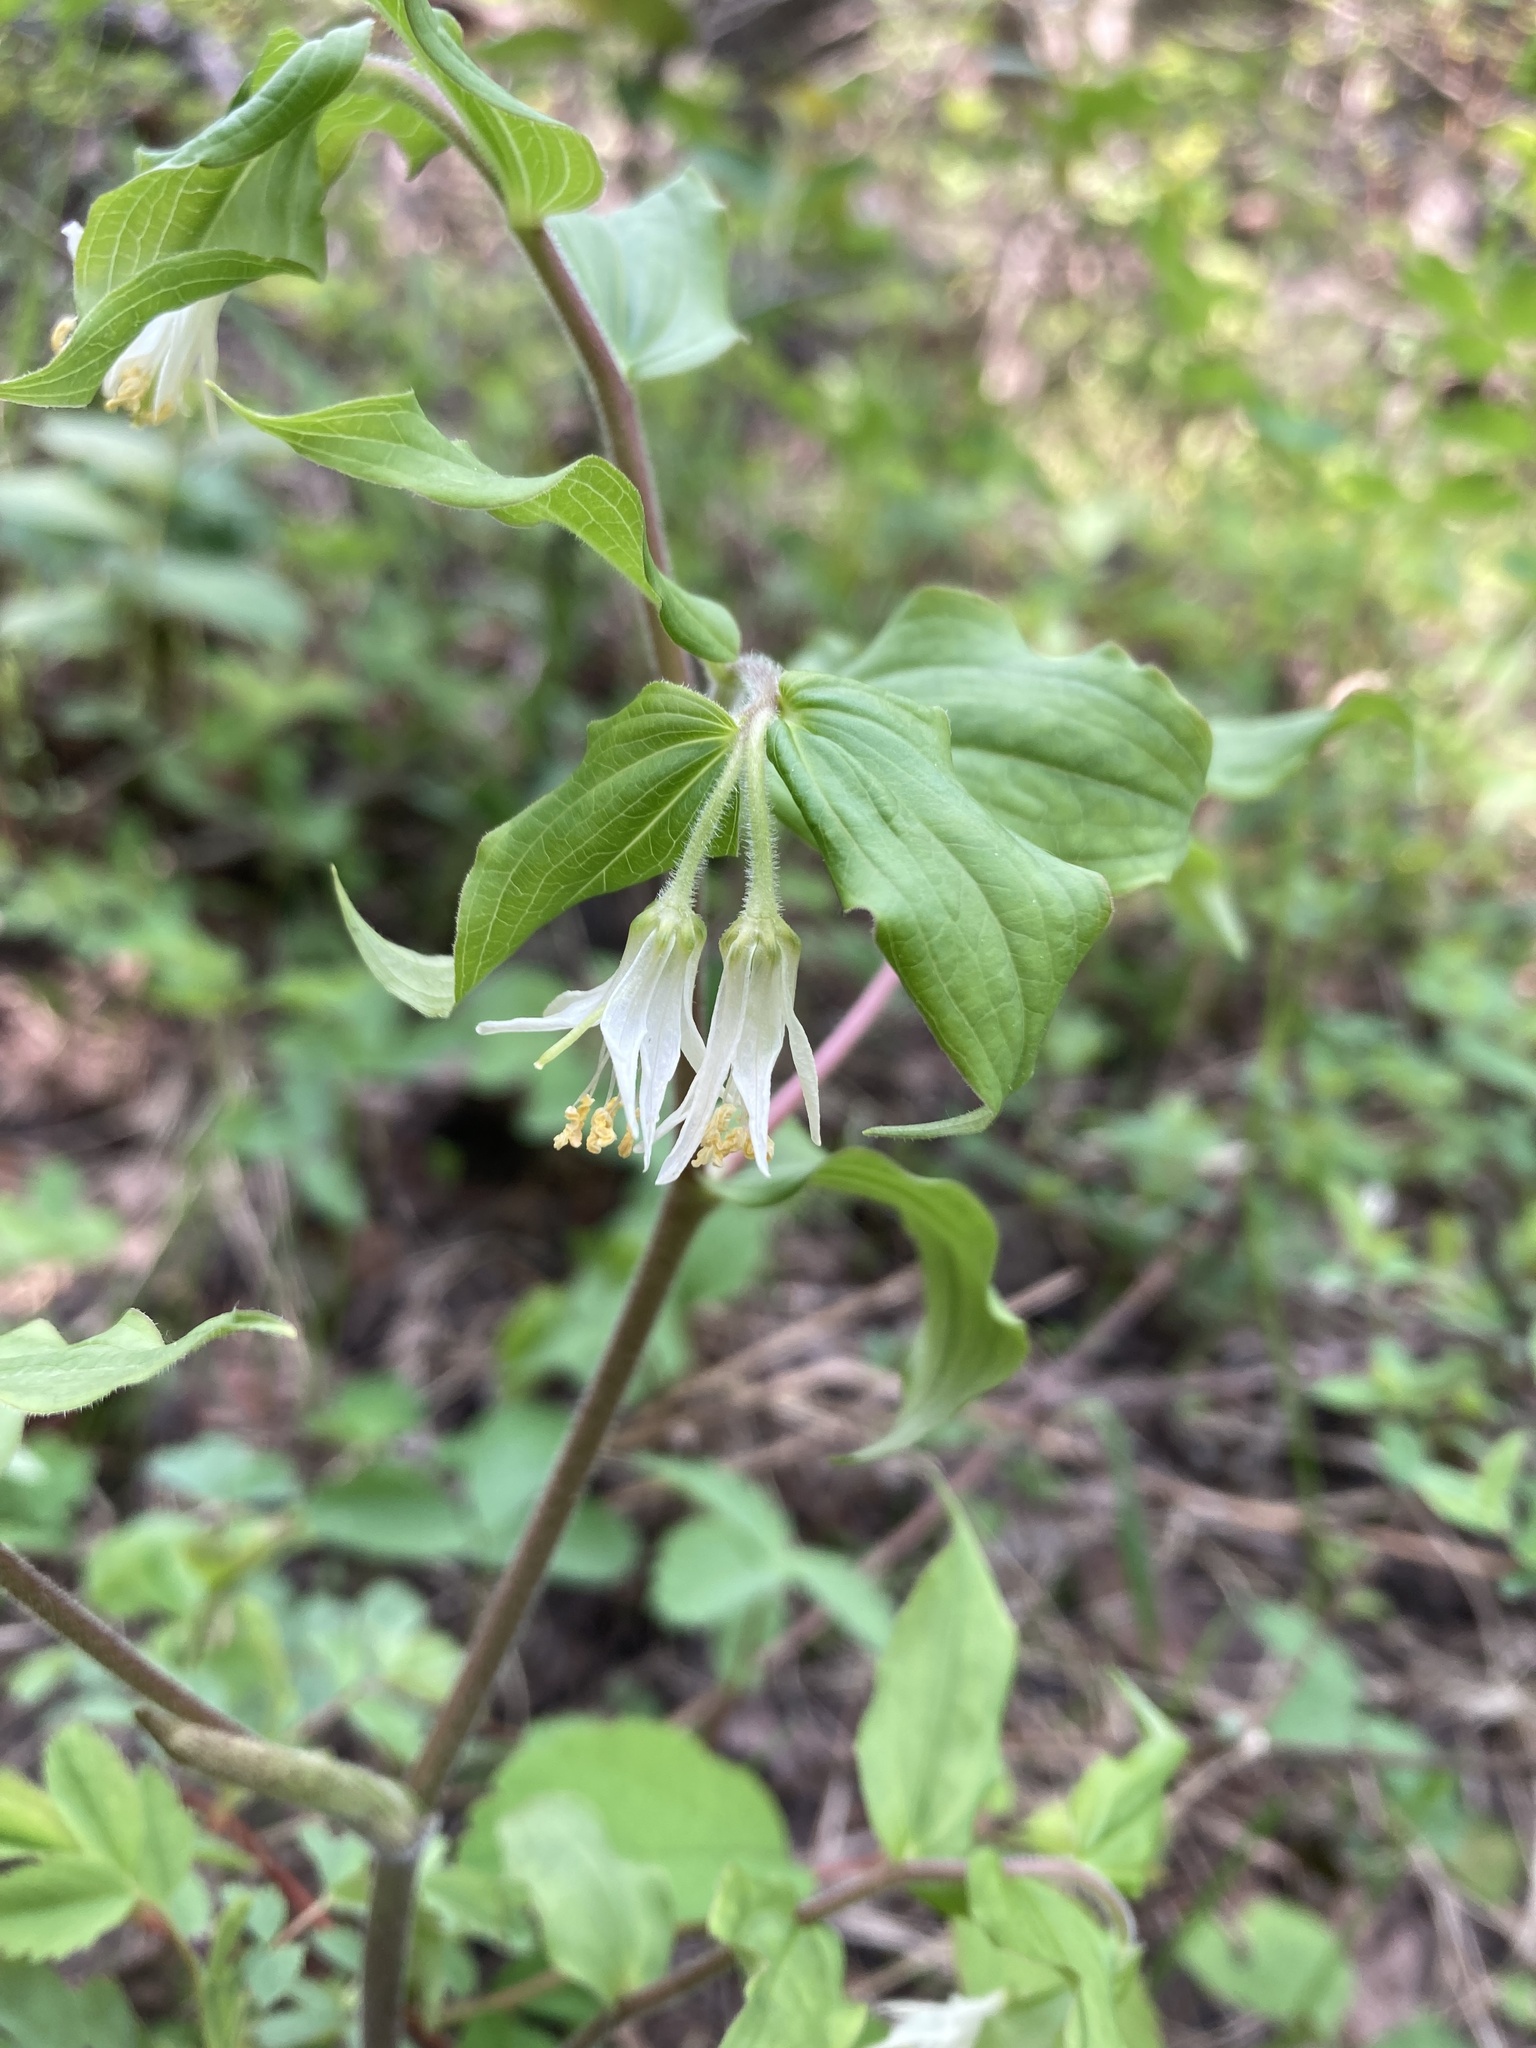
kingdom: Plantae
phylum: Tracheophyta
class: Liliopsida
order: Liliales
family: Liliaceae
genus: Prosartes
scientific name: Prosartes trachycarpa
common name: Rough-fruit fairy-bells
